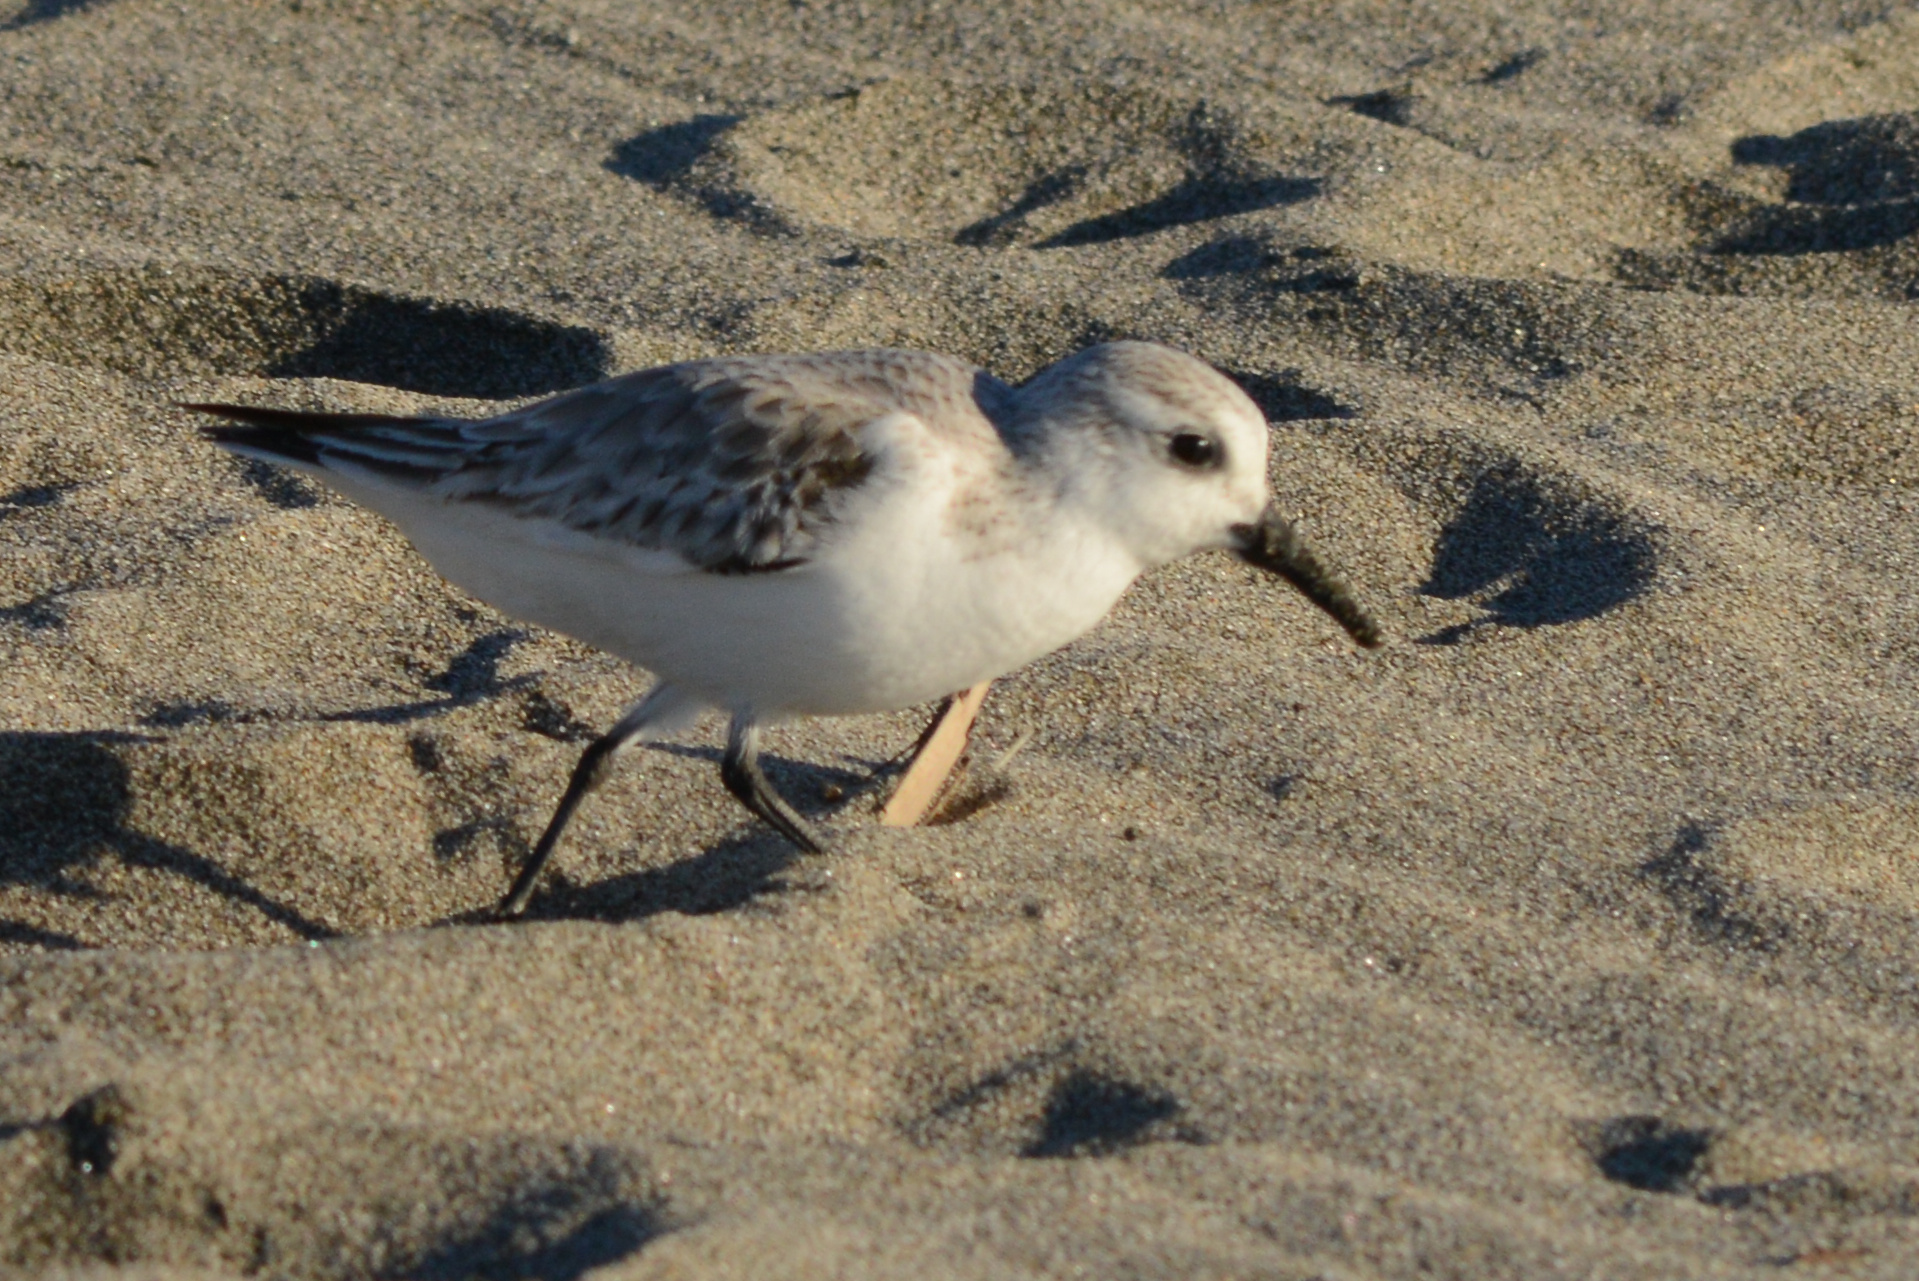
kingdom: Animalia
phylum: Chordata
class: Aves
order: Charadriiformes
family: Scolopacidae
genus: Calidris
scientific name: Calidris alba
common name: Sanderling
